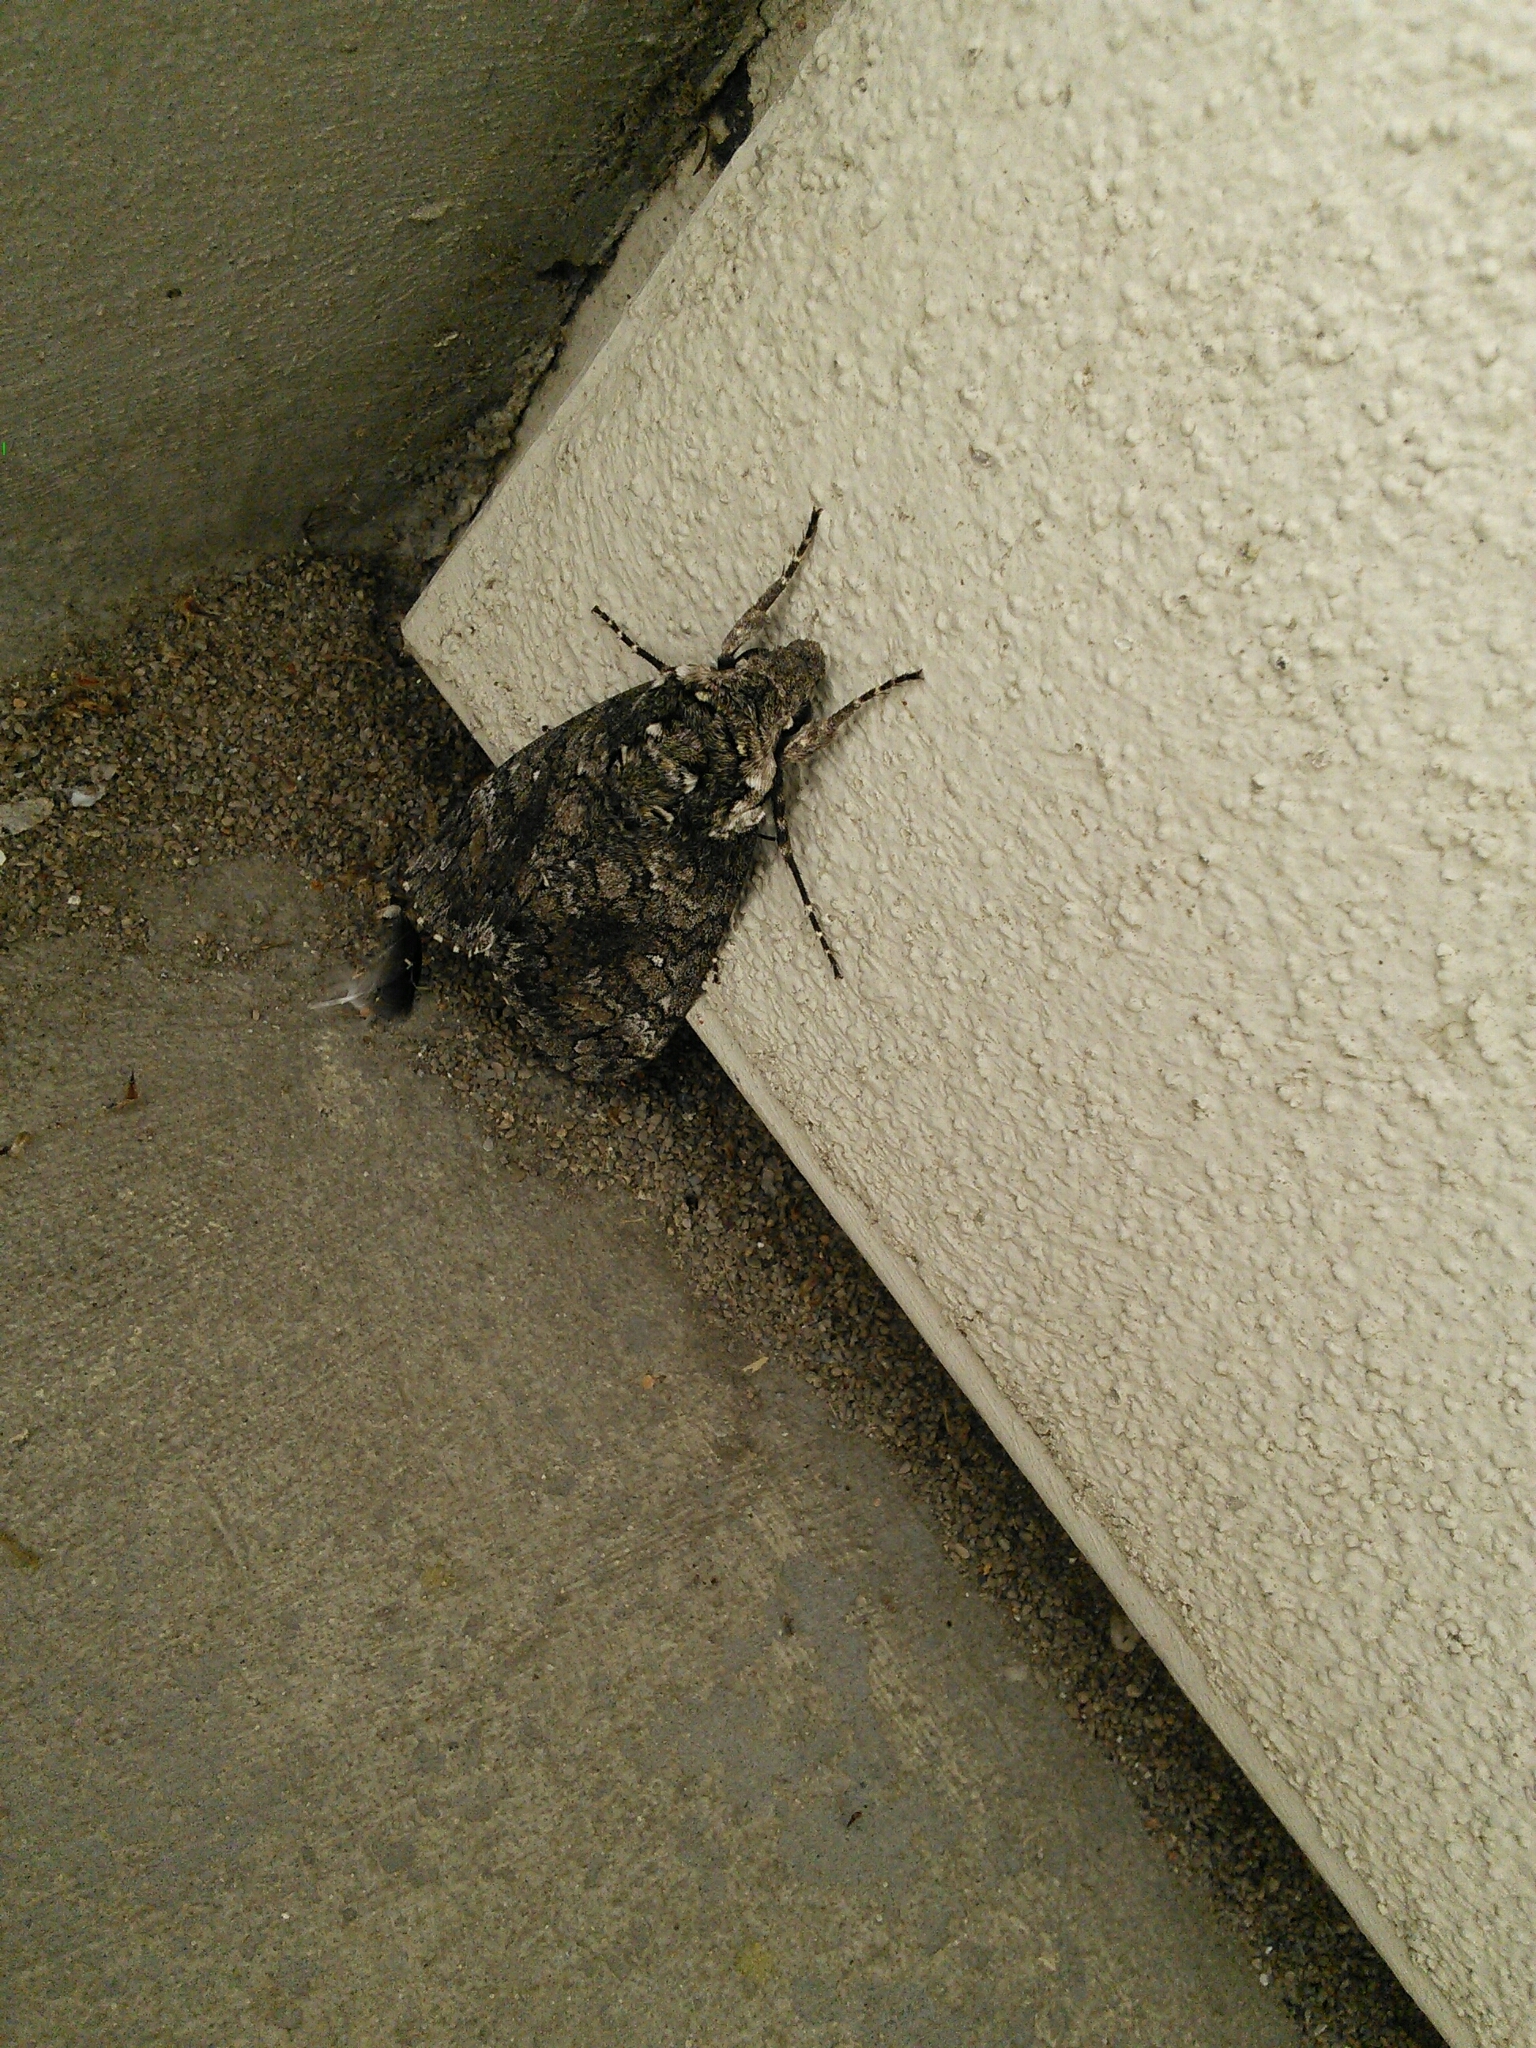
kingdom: Animalia
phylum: Arthropoda
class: Insecta
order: Lepidoptera
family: Sphingidae
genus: Manduca
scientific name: Manduca sexta
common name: Carolina sphinx
